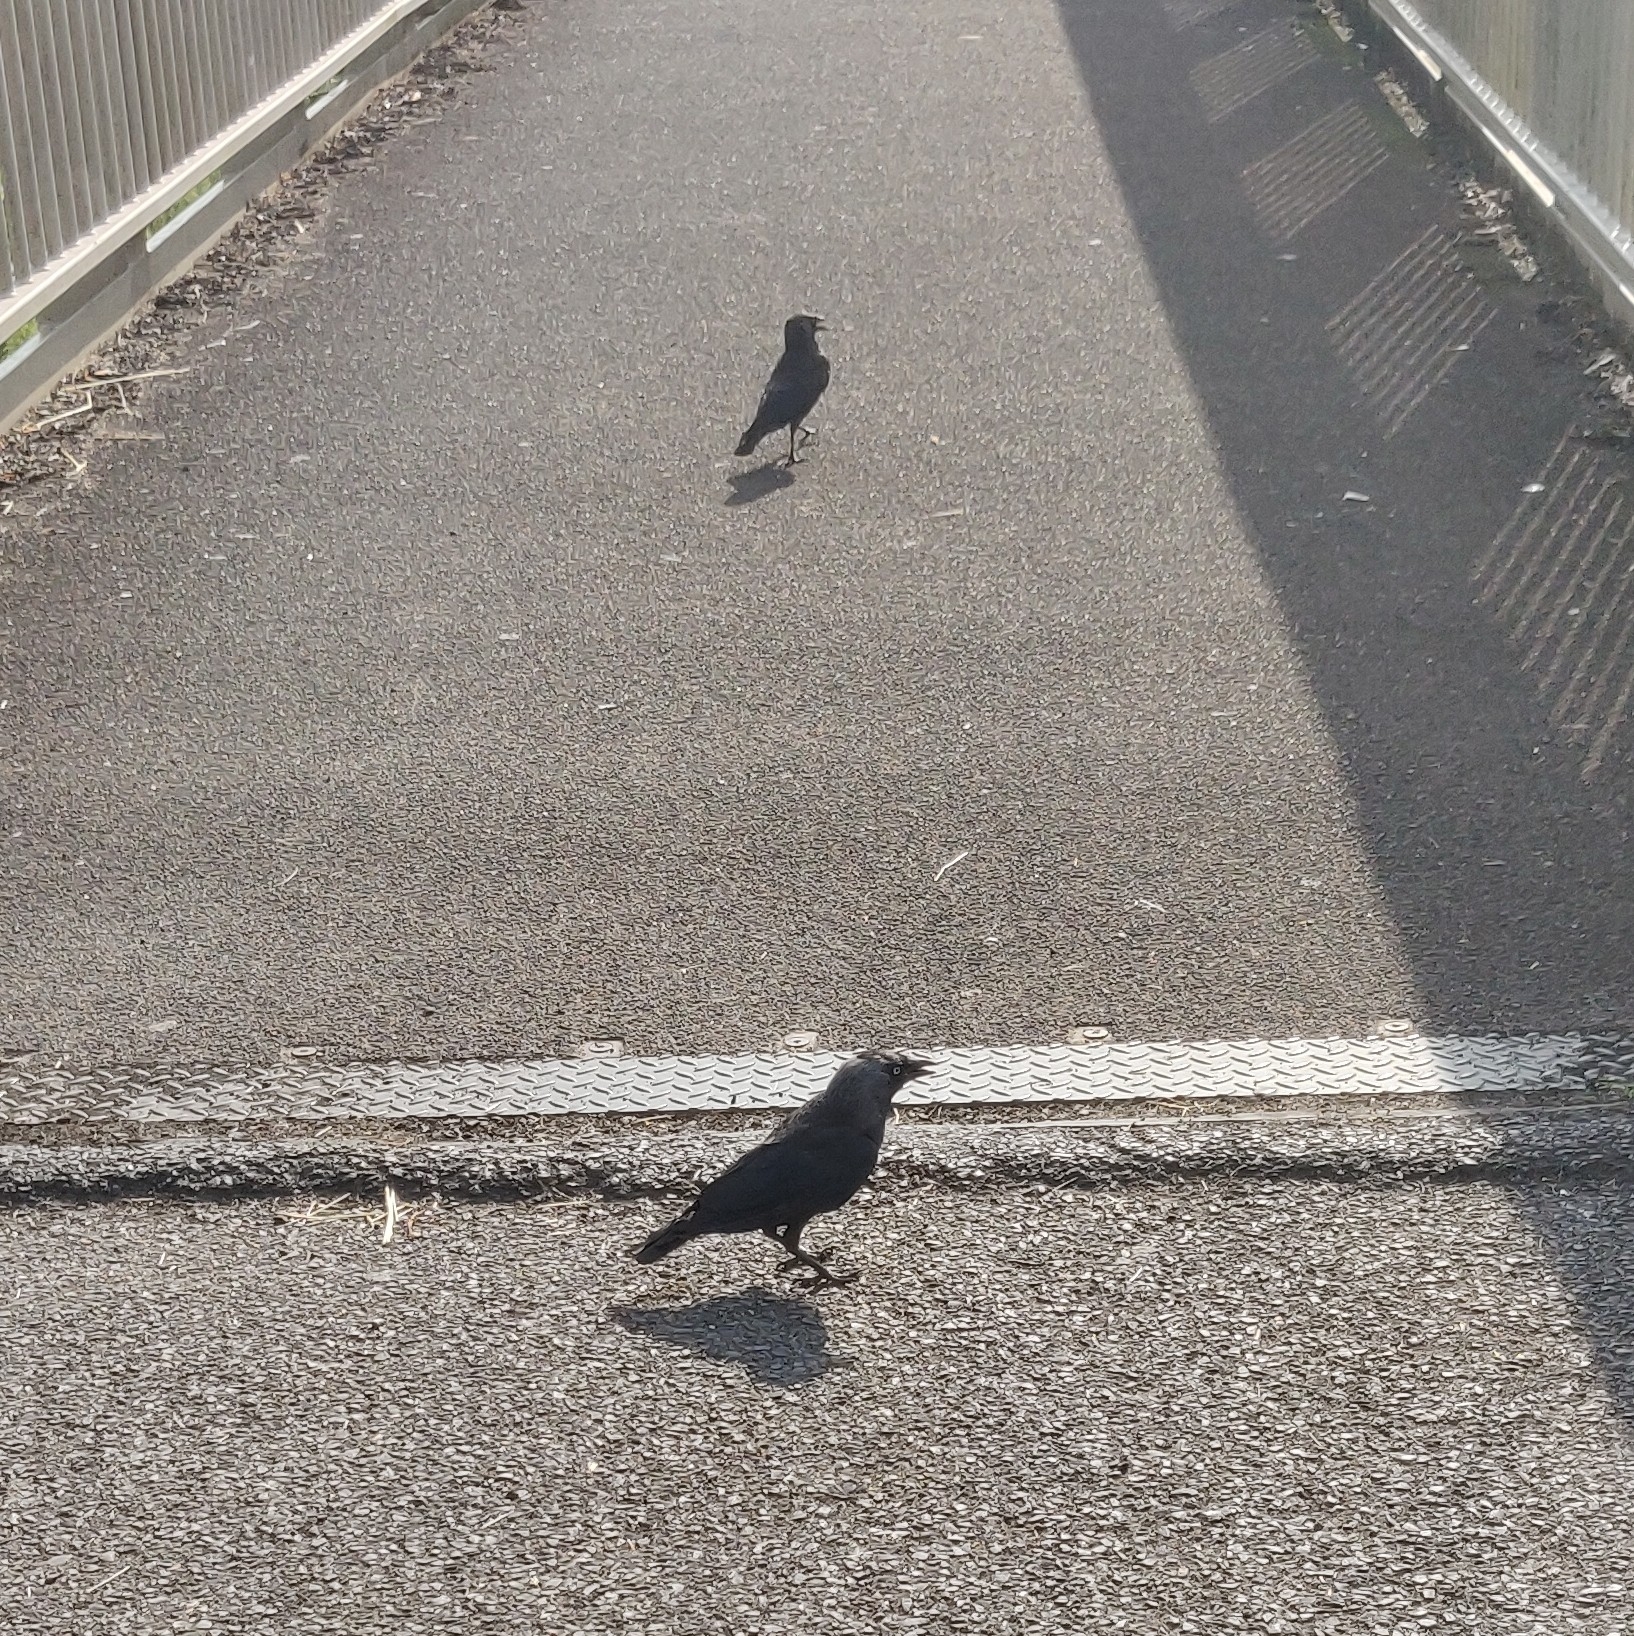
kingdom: Animalia
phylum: Chordata
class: Aves
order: Passeriformes
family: Corvidae
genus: Coloeus
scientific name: Coloeus monedula
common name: Western jackdaw
